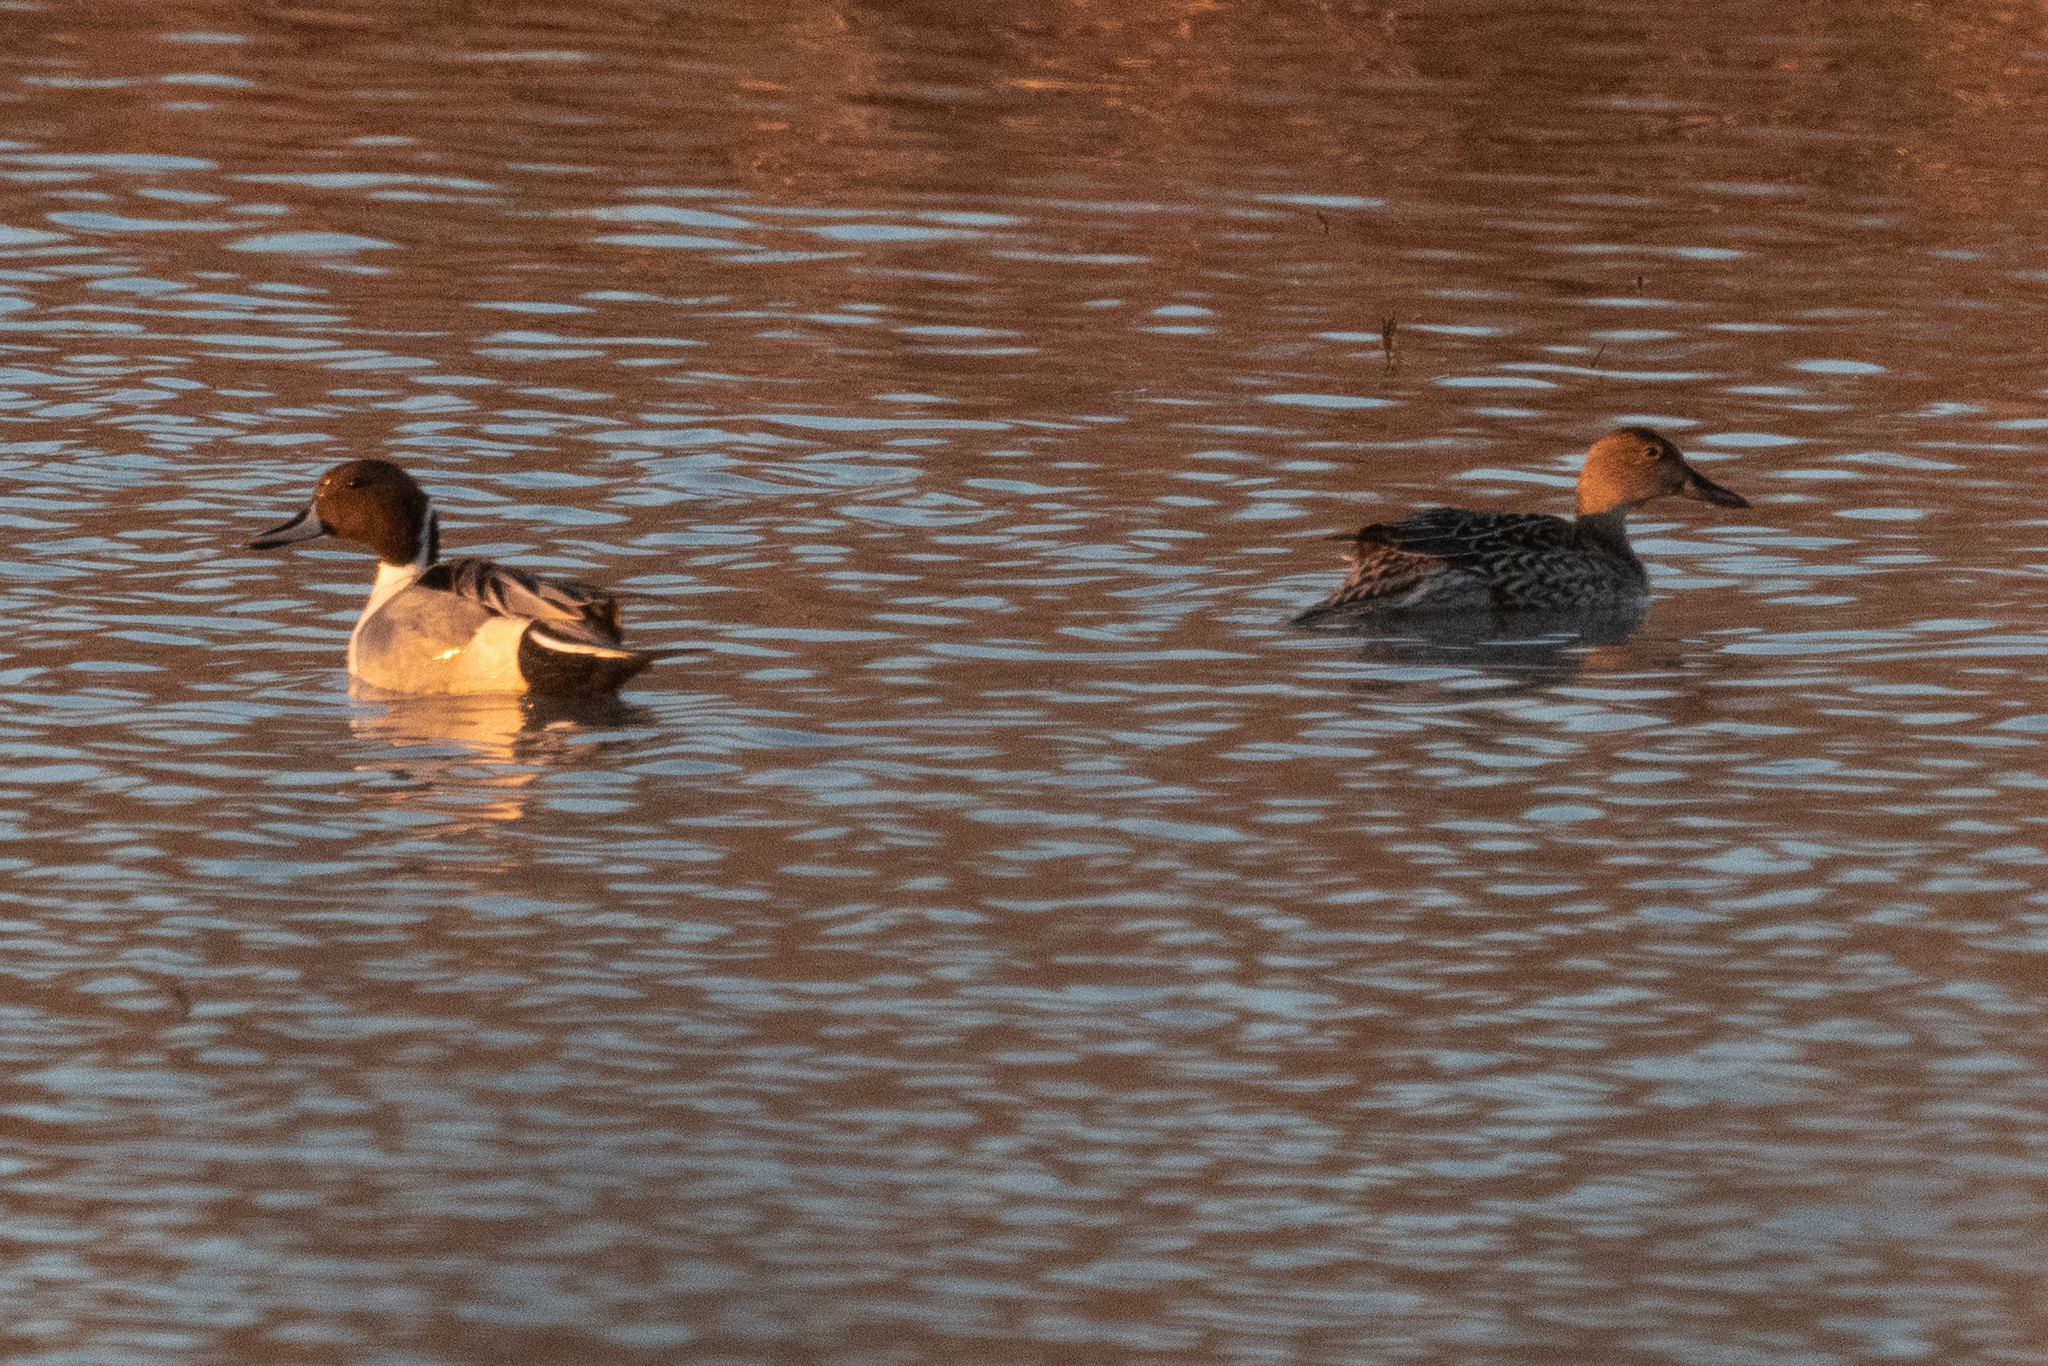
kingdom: Animalia
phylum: Chordata
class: Aves
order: Anseriformes
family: Anatidae
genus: Anas
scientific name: Anas acuta
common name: Northern pintail
